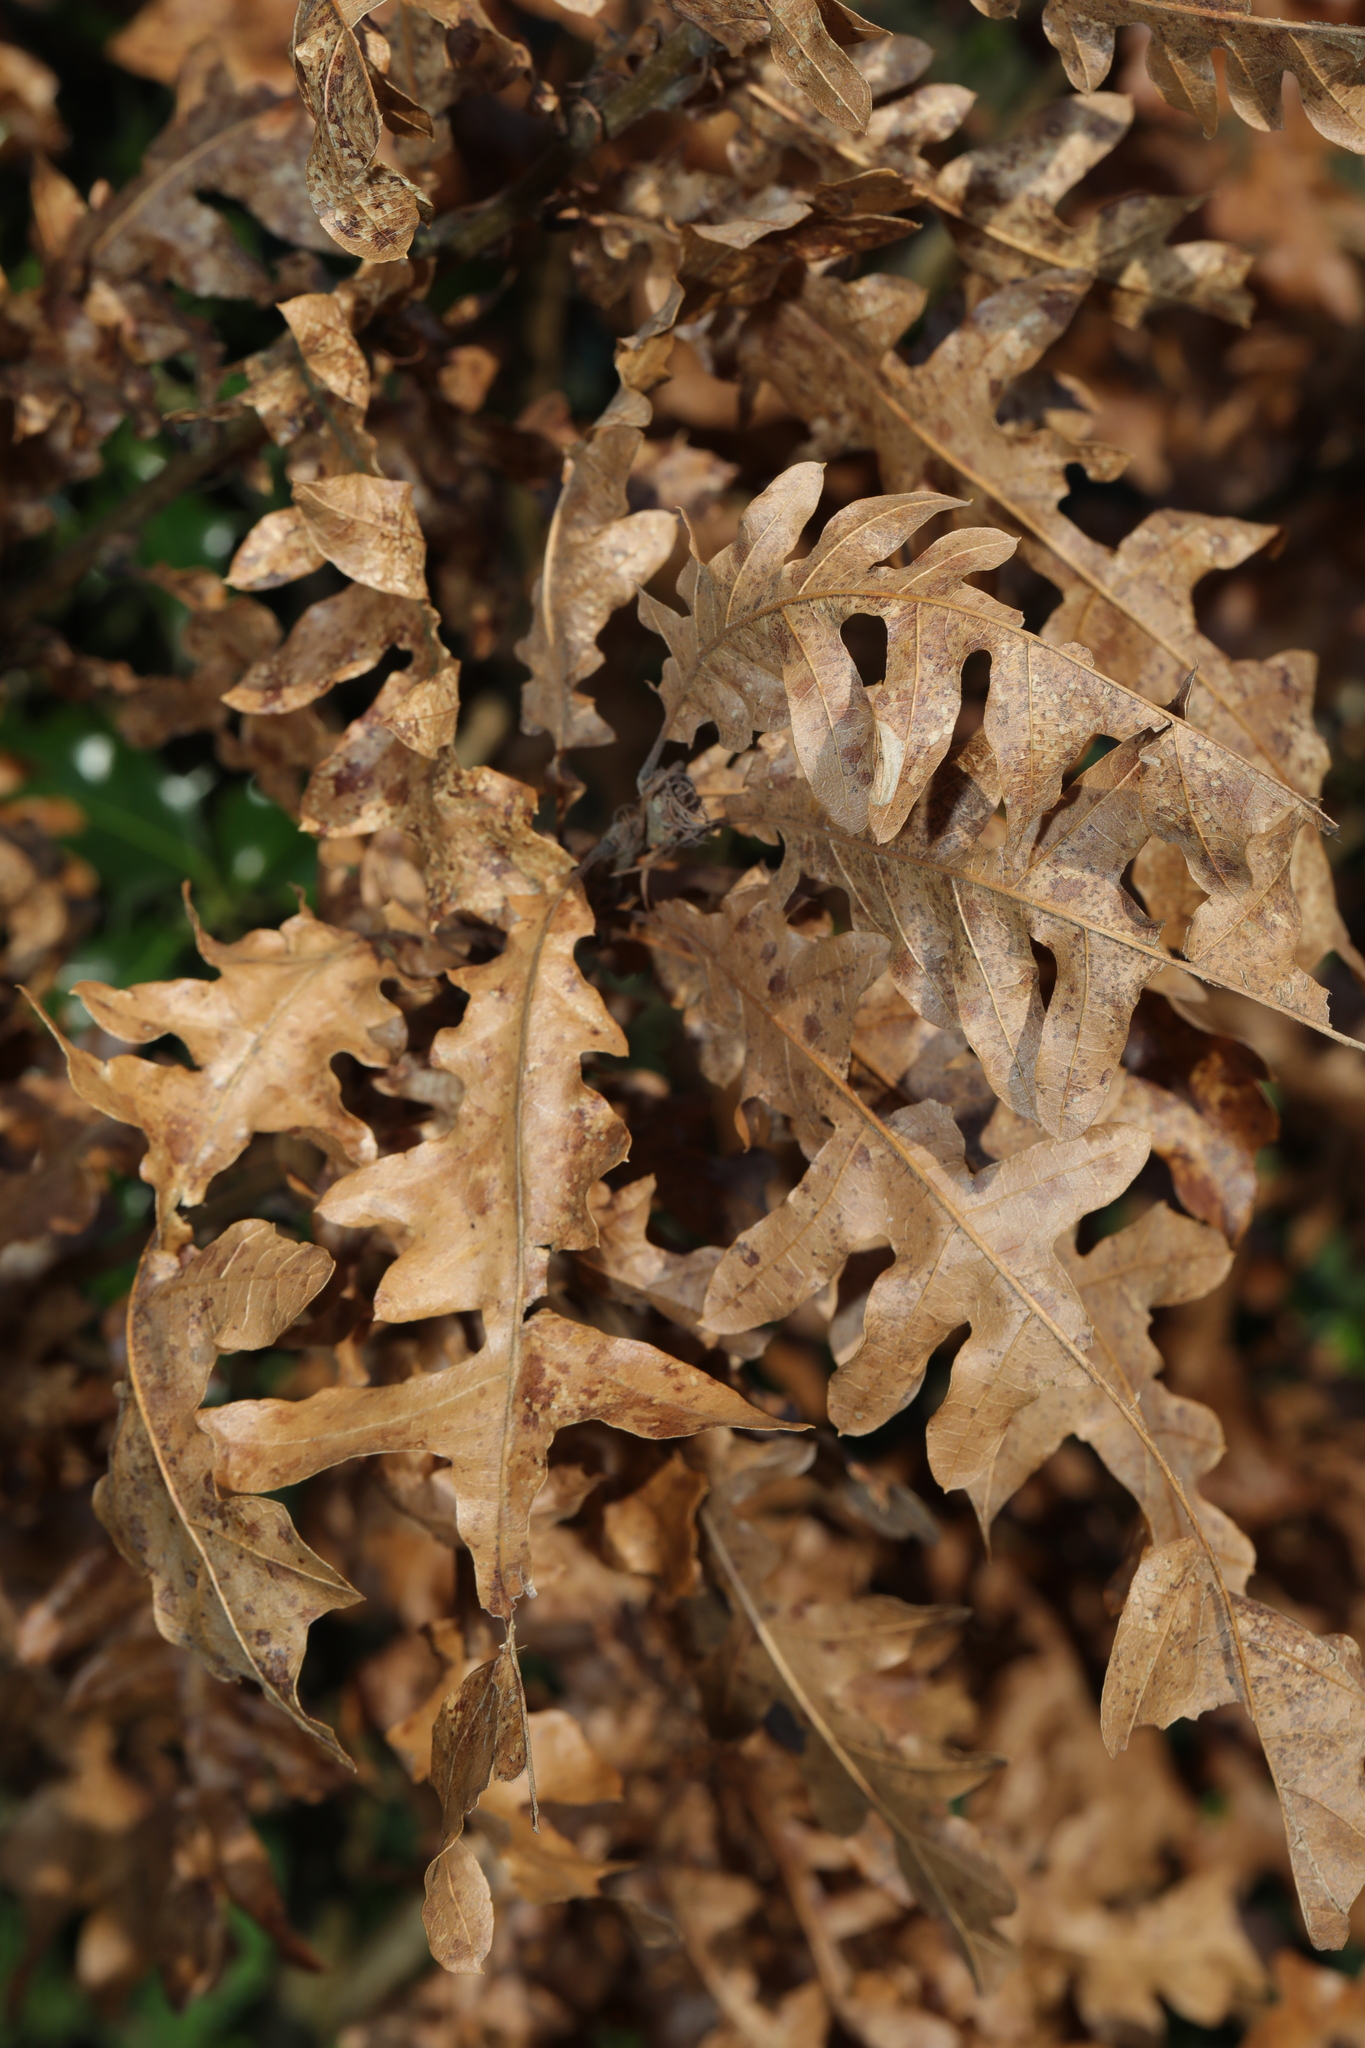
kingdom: Plantae
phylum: Tracheophyta
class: Magnoliopsida
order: Fagales
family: Fagaceae
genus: Quercus
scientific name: Quercus cerris
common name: Turkey oak
